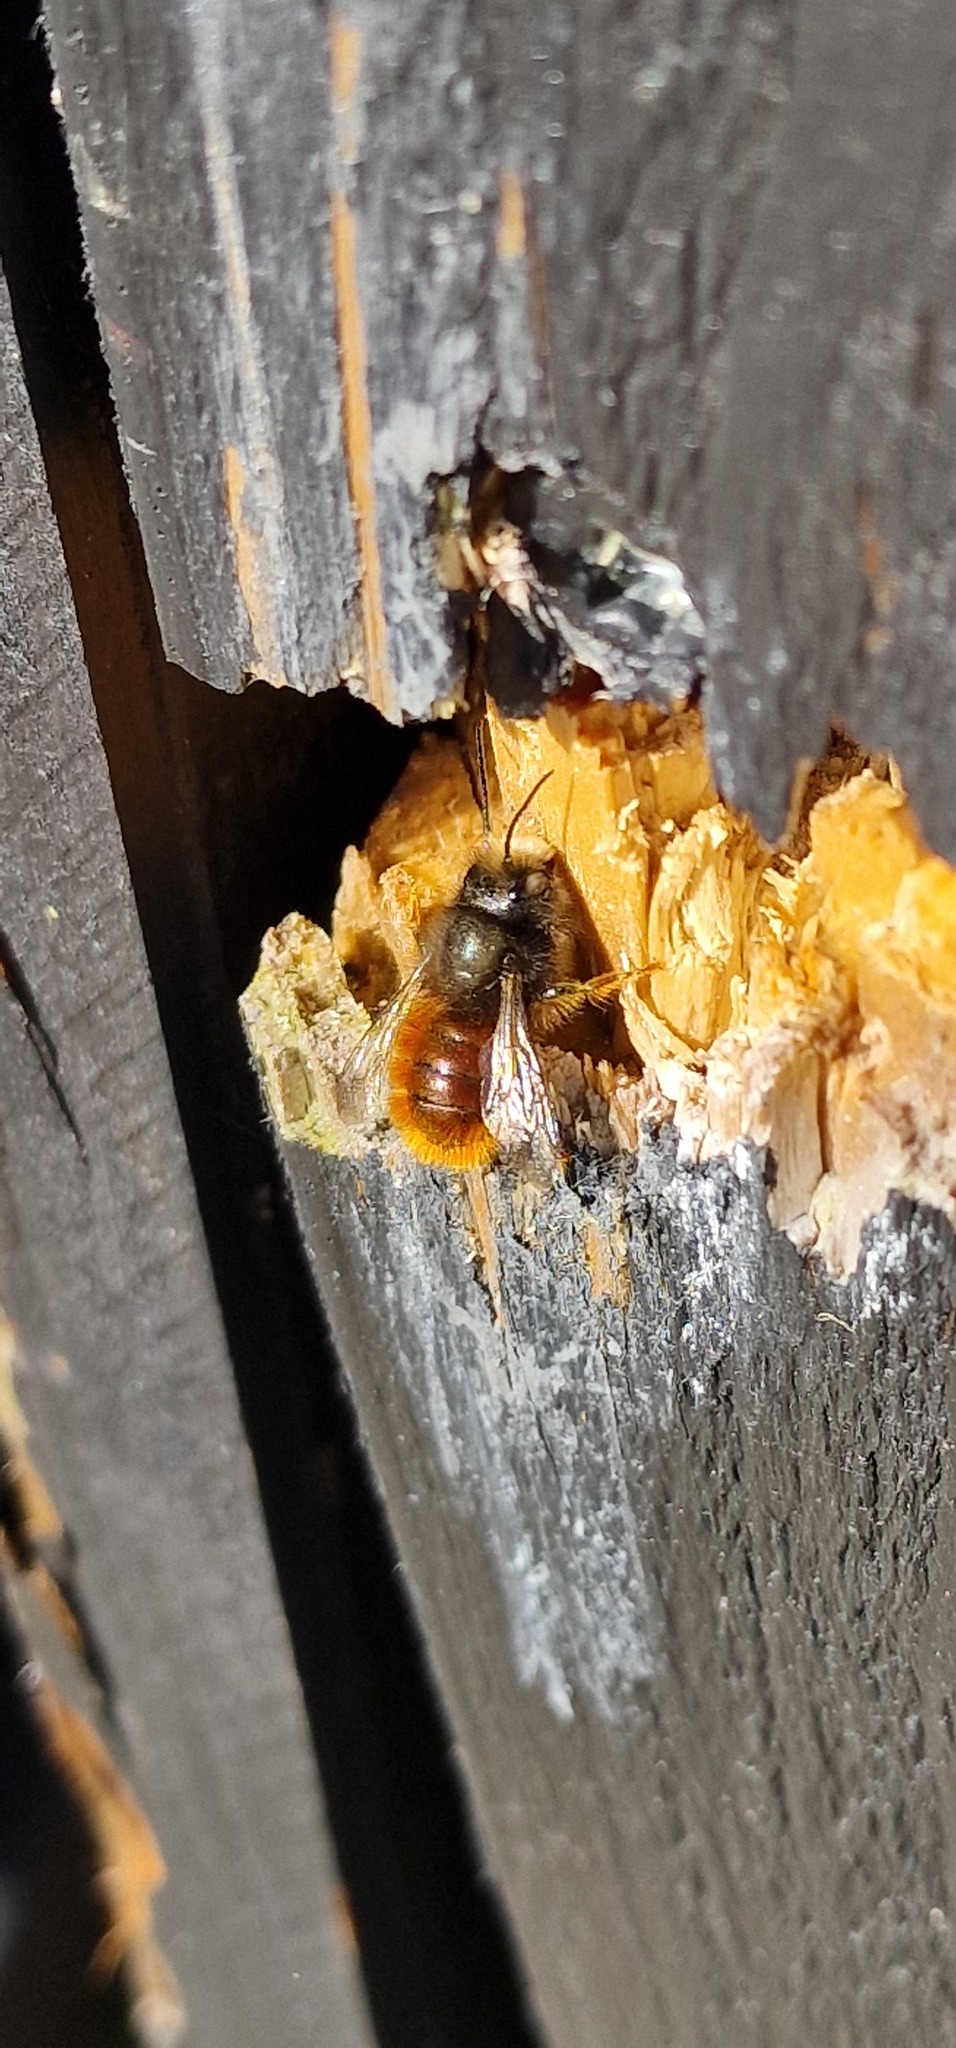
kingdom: Animalia
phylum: Arthropoda
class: Insecta
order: Hymenoptera
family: Megachilidae
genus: Osmia
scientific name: Osmia cornuta
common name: Mason bee
